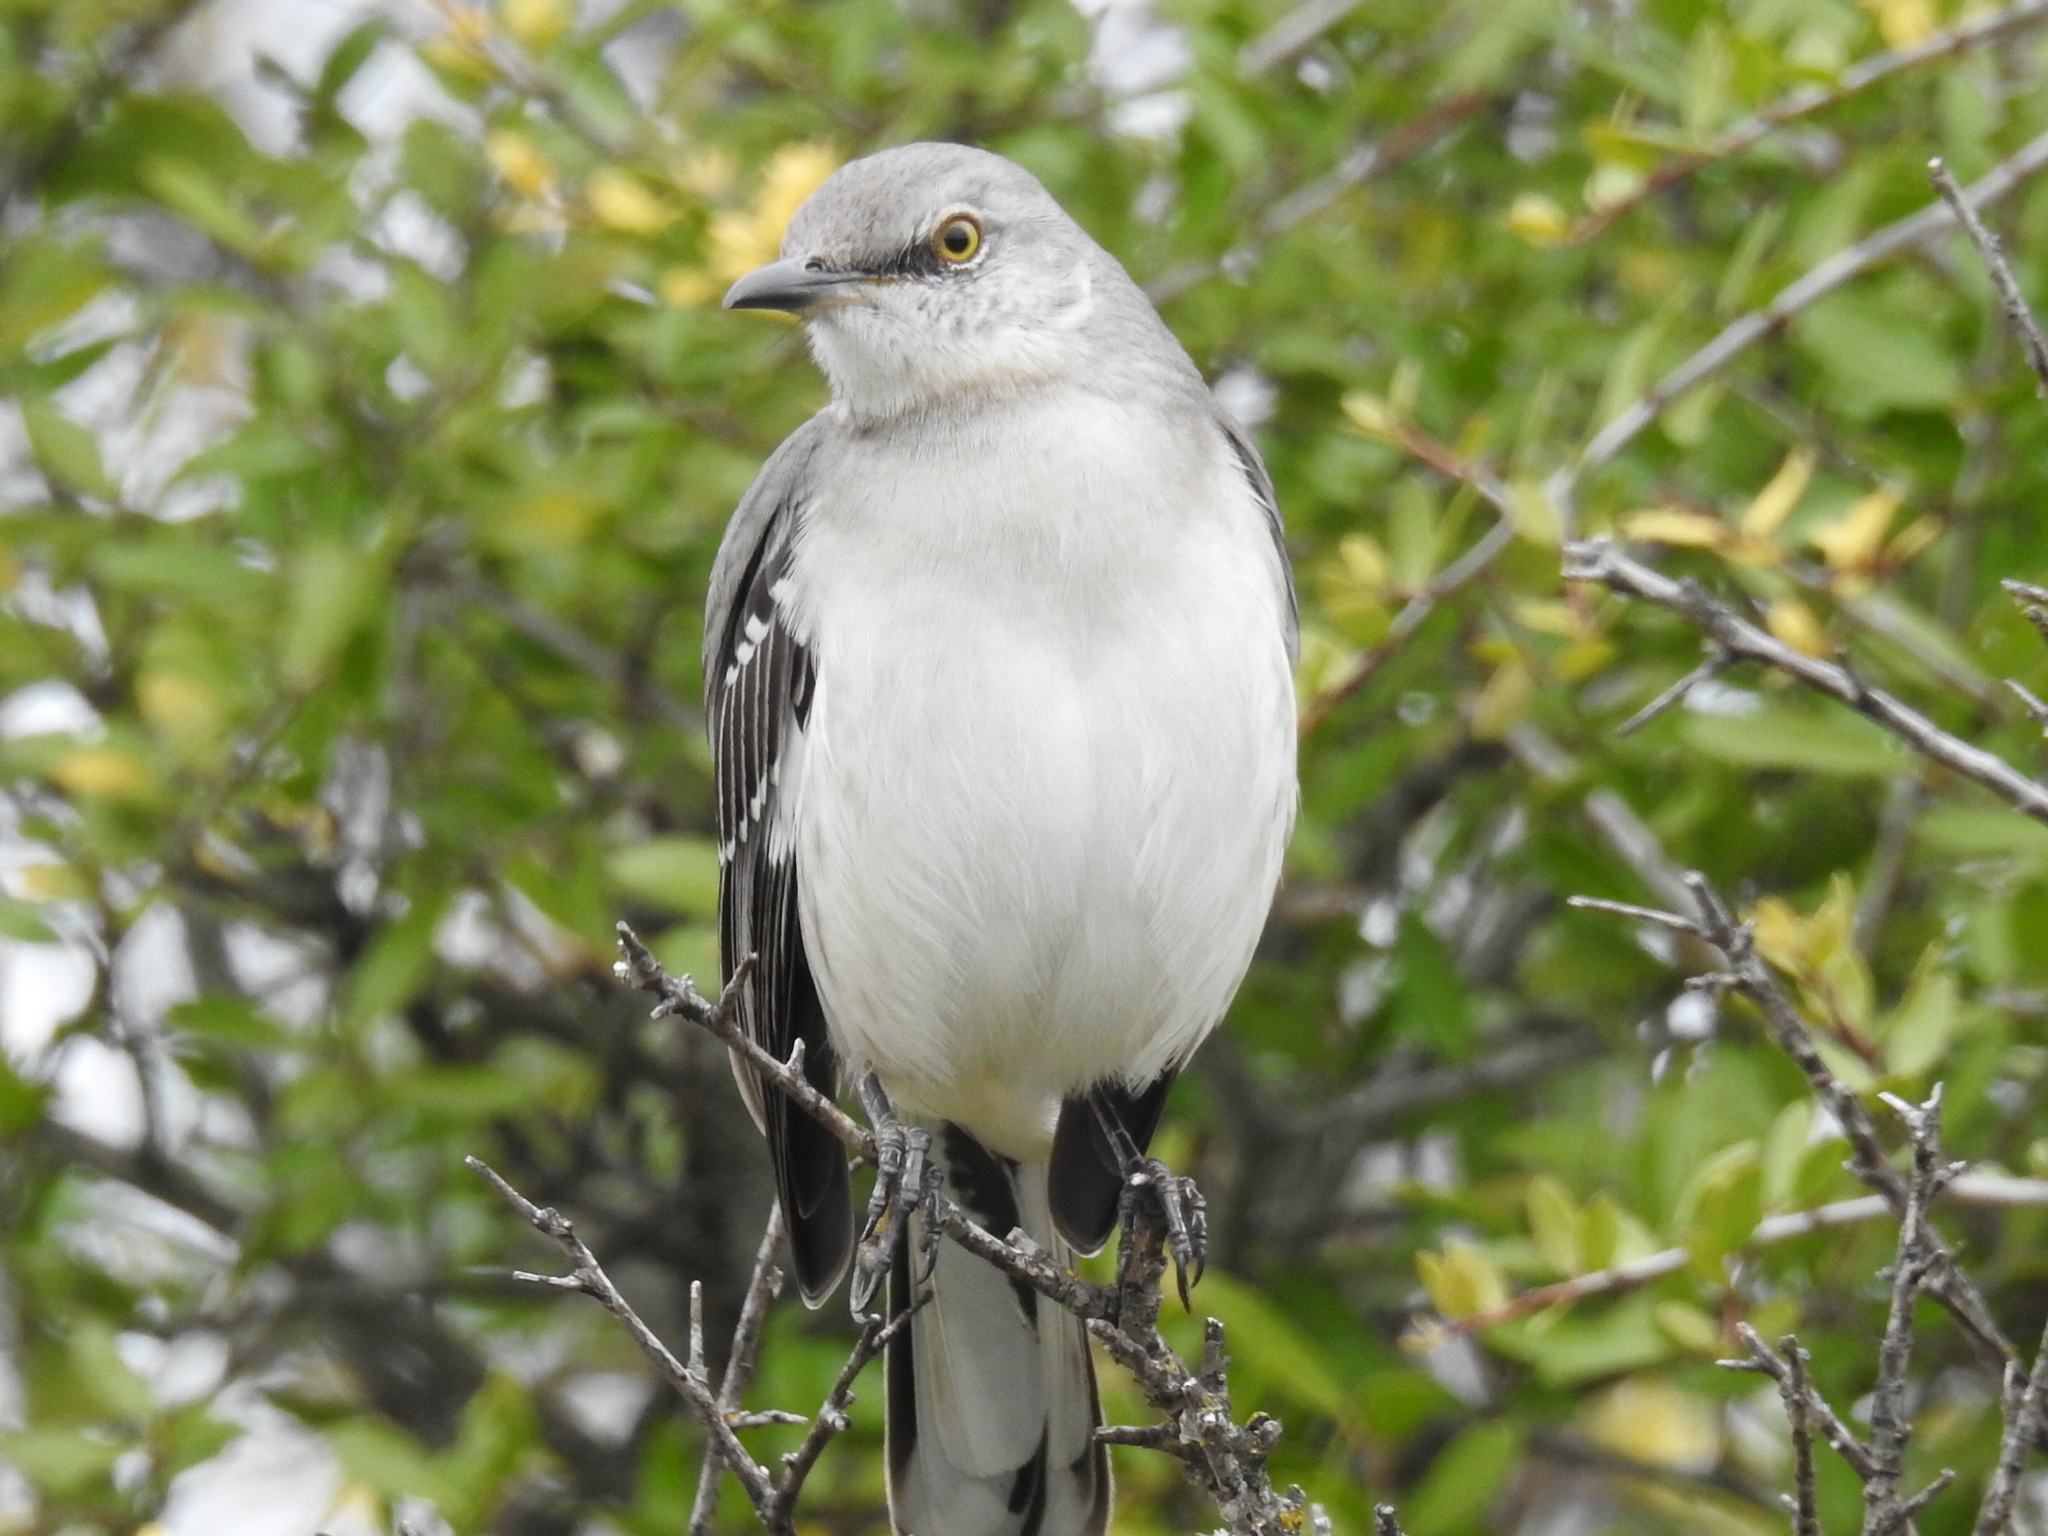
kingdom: Animalia
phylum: Chordata
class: Aves
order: Passeriformes
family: Mimidae
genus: Mimus
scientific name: Mimus polyglottos
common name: Northern mockingbird
